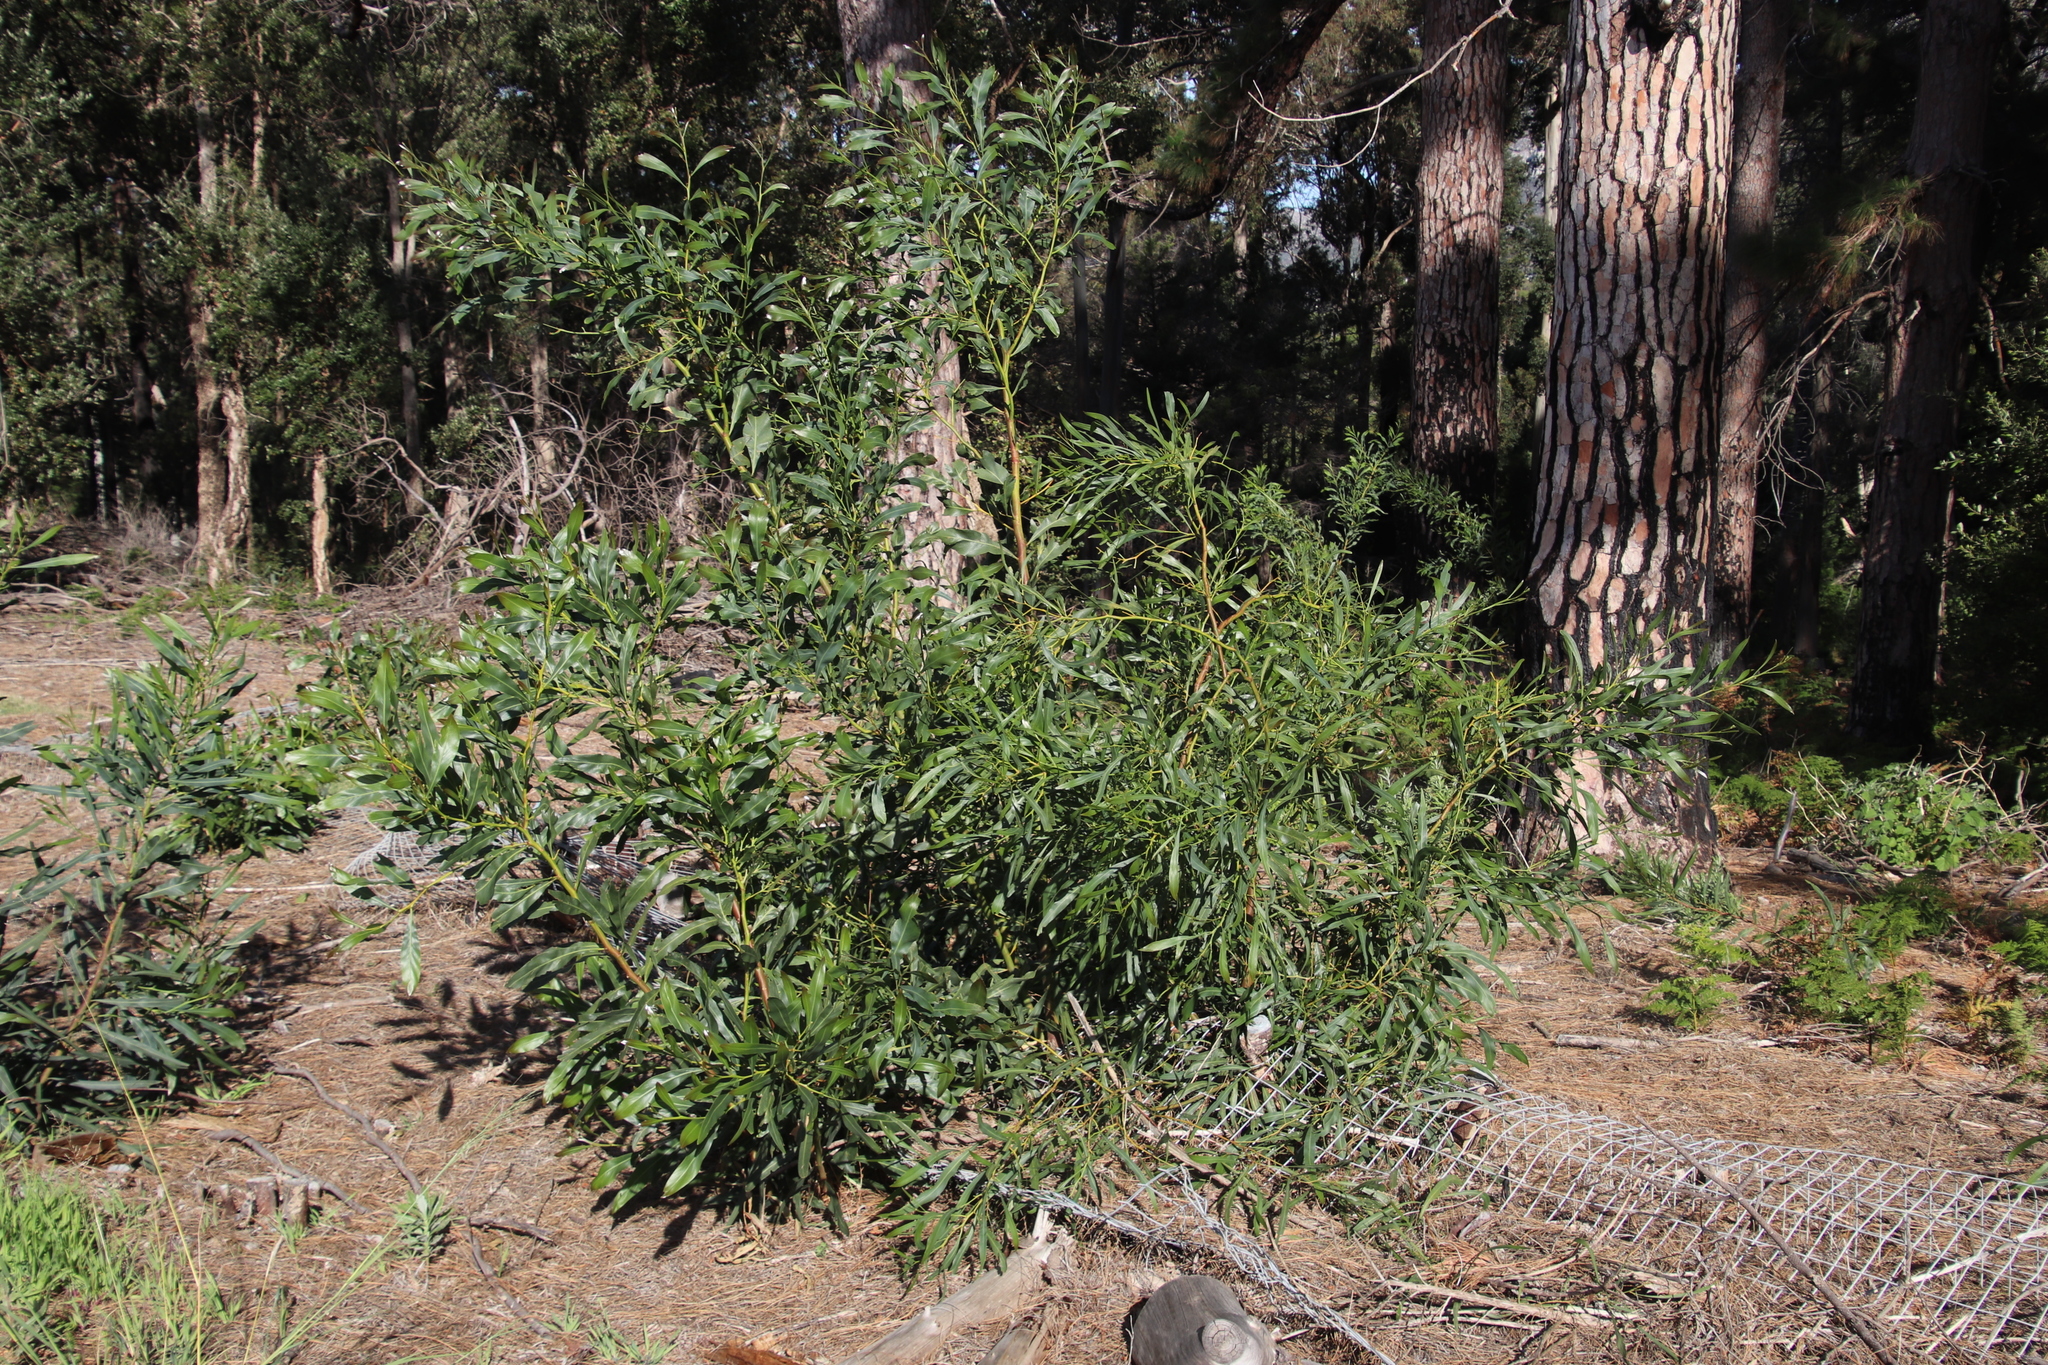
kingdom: Plantae
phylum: Tracheophyta
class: Magnoliopsida
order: Fabales
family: Fabaceae
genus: Acacia
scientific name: Acacia saligna
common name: Orange wattle
